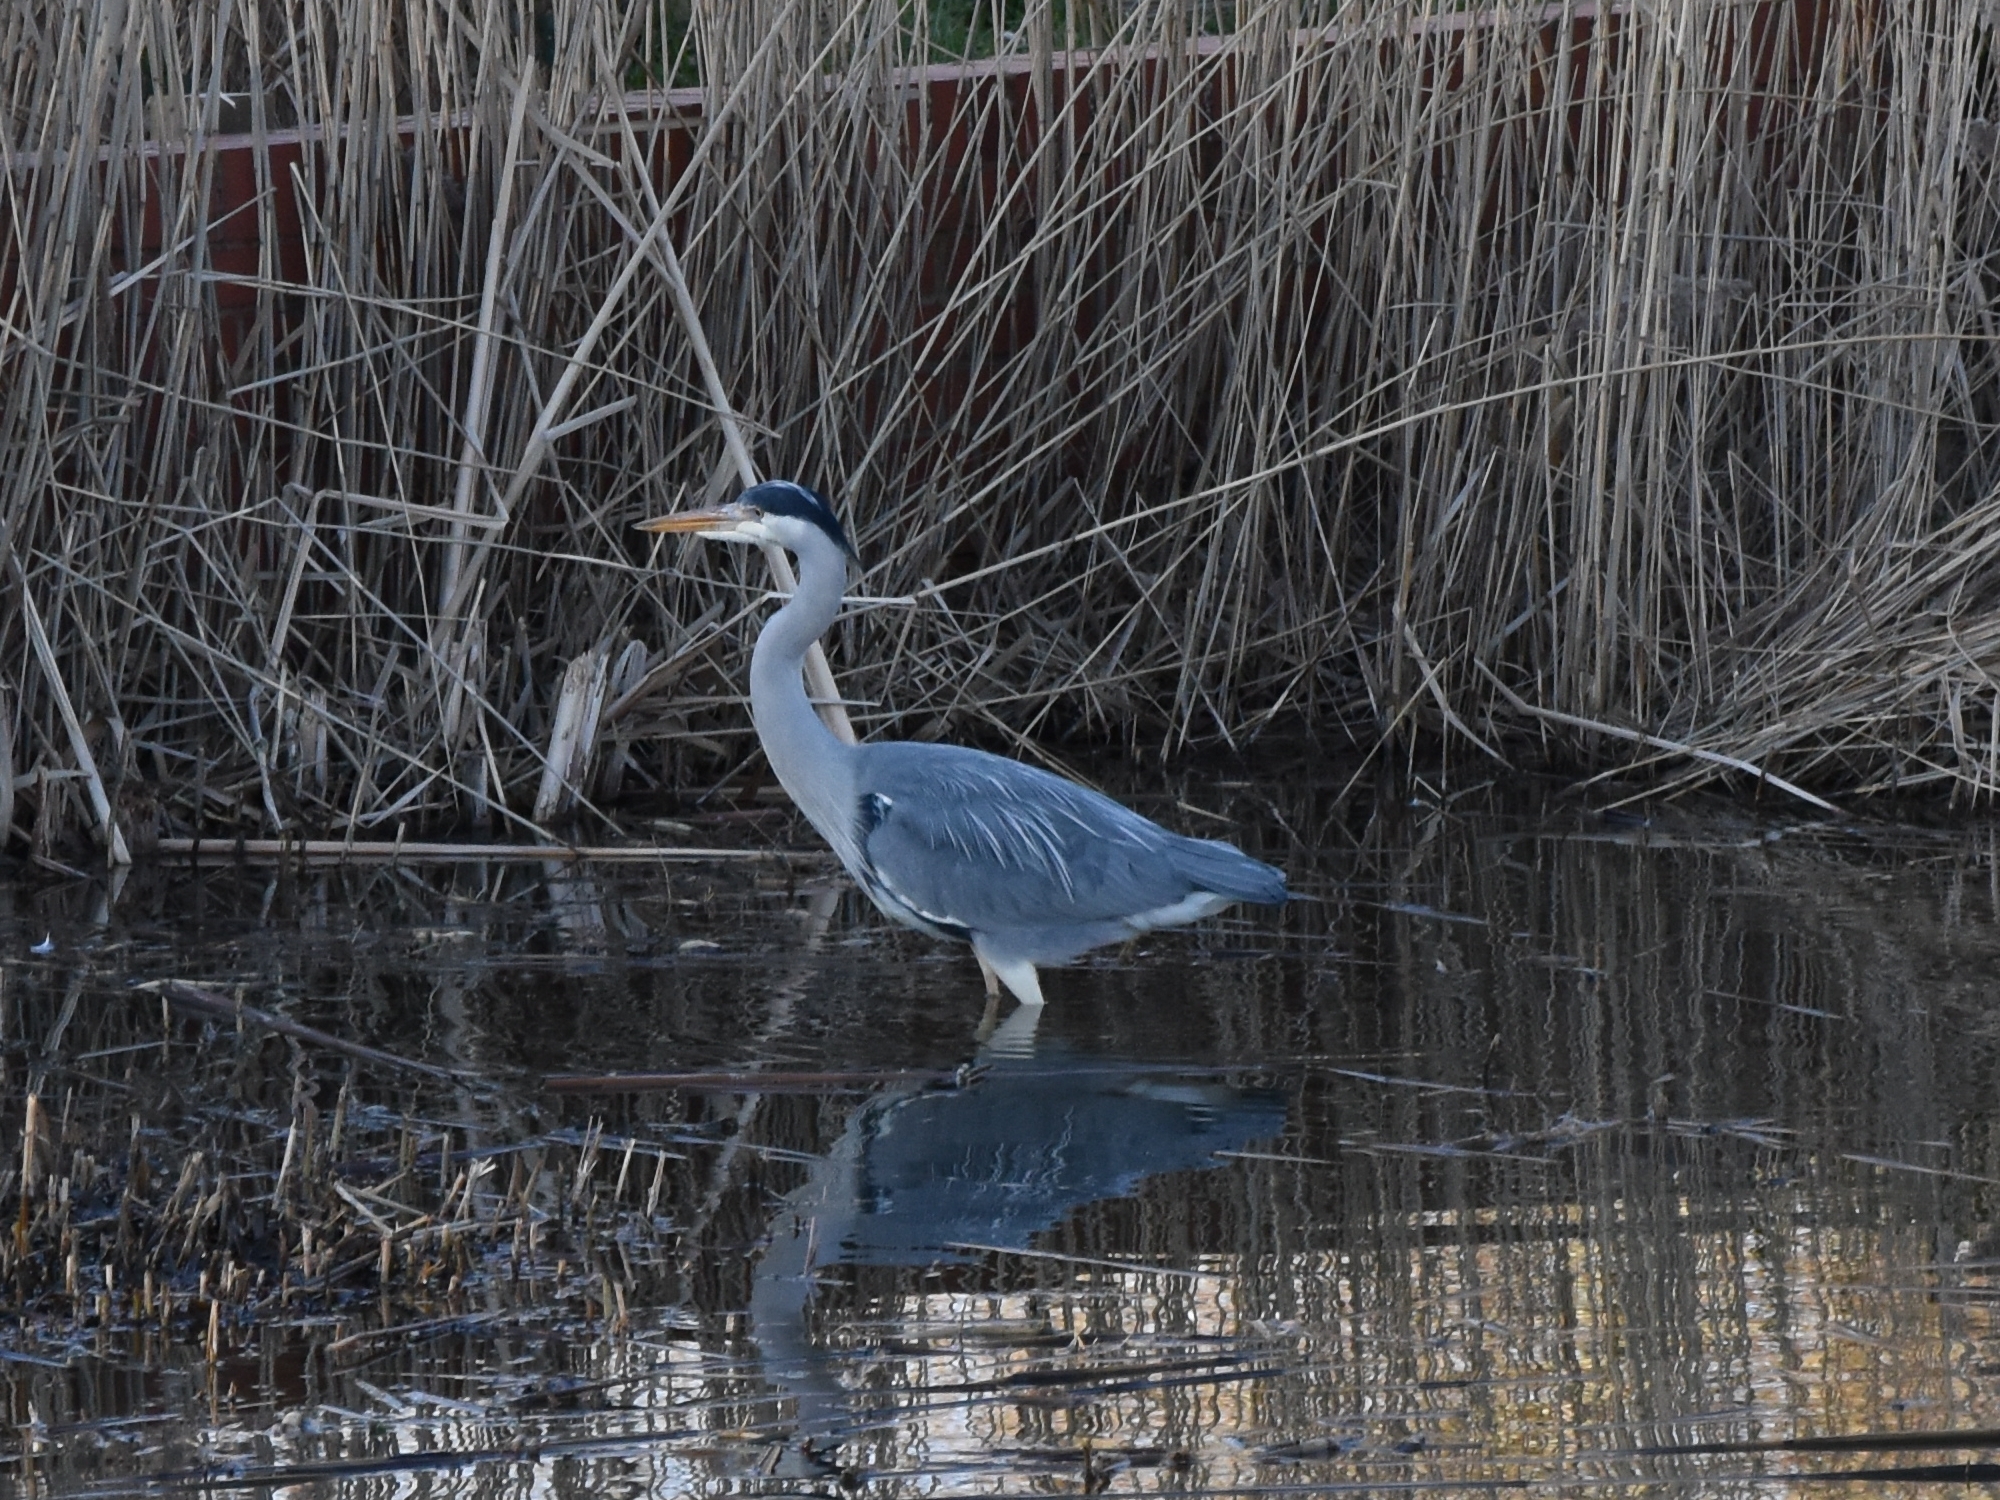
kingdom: Animalia
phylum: Chordata
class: Aves
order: Pelecaniformes
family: Ardeidae
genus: Ardea
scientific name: Ardea cinerea
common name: Grey heron
